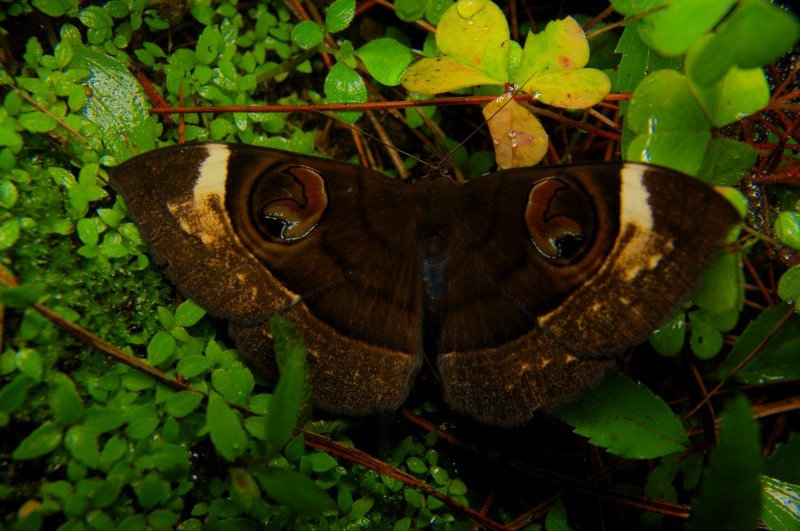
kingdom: Animalia
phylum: Arthropoda
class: Insecta
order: Lepidoptera
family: Erebidae
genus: Erebus
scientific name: Erebus gemmans
